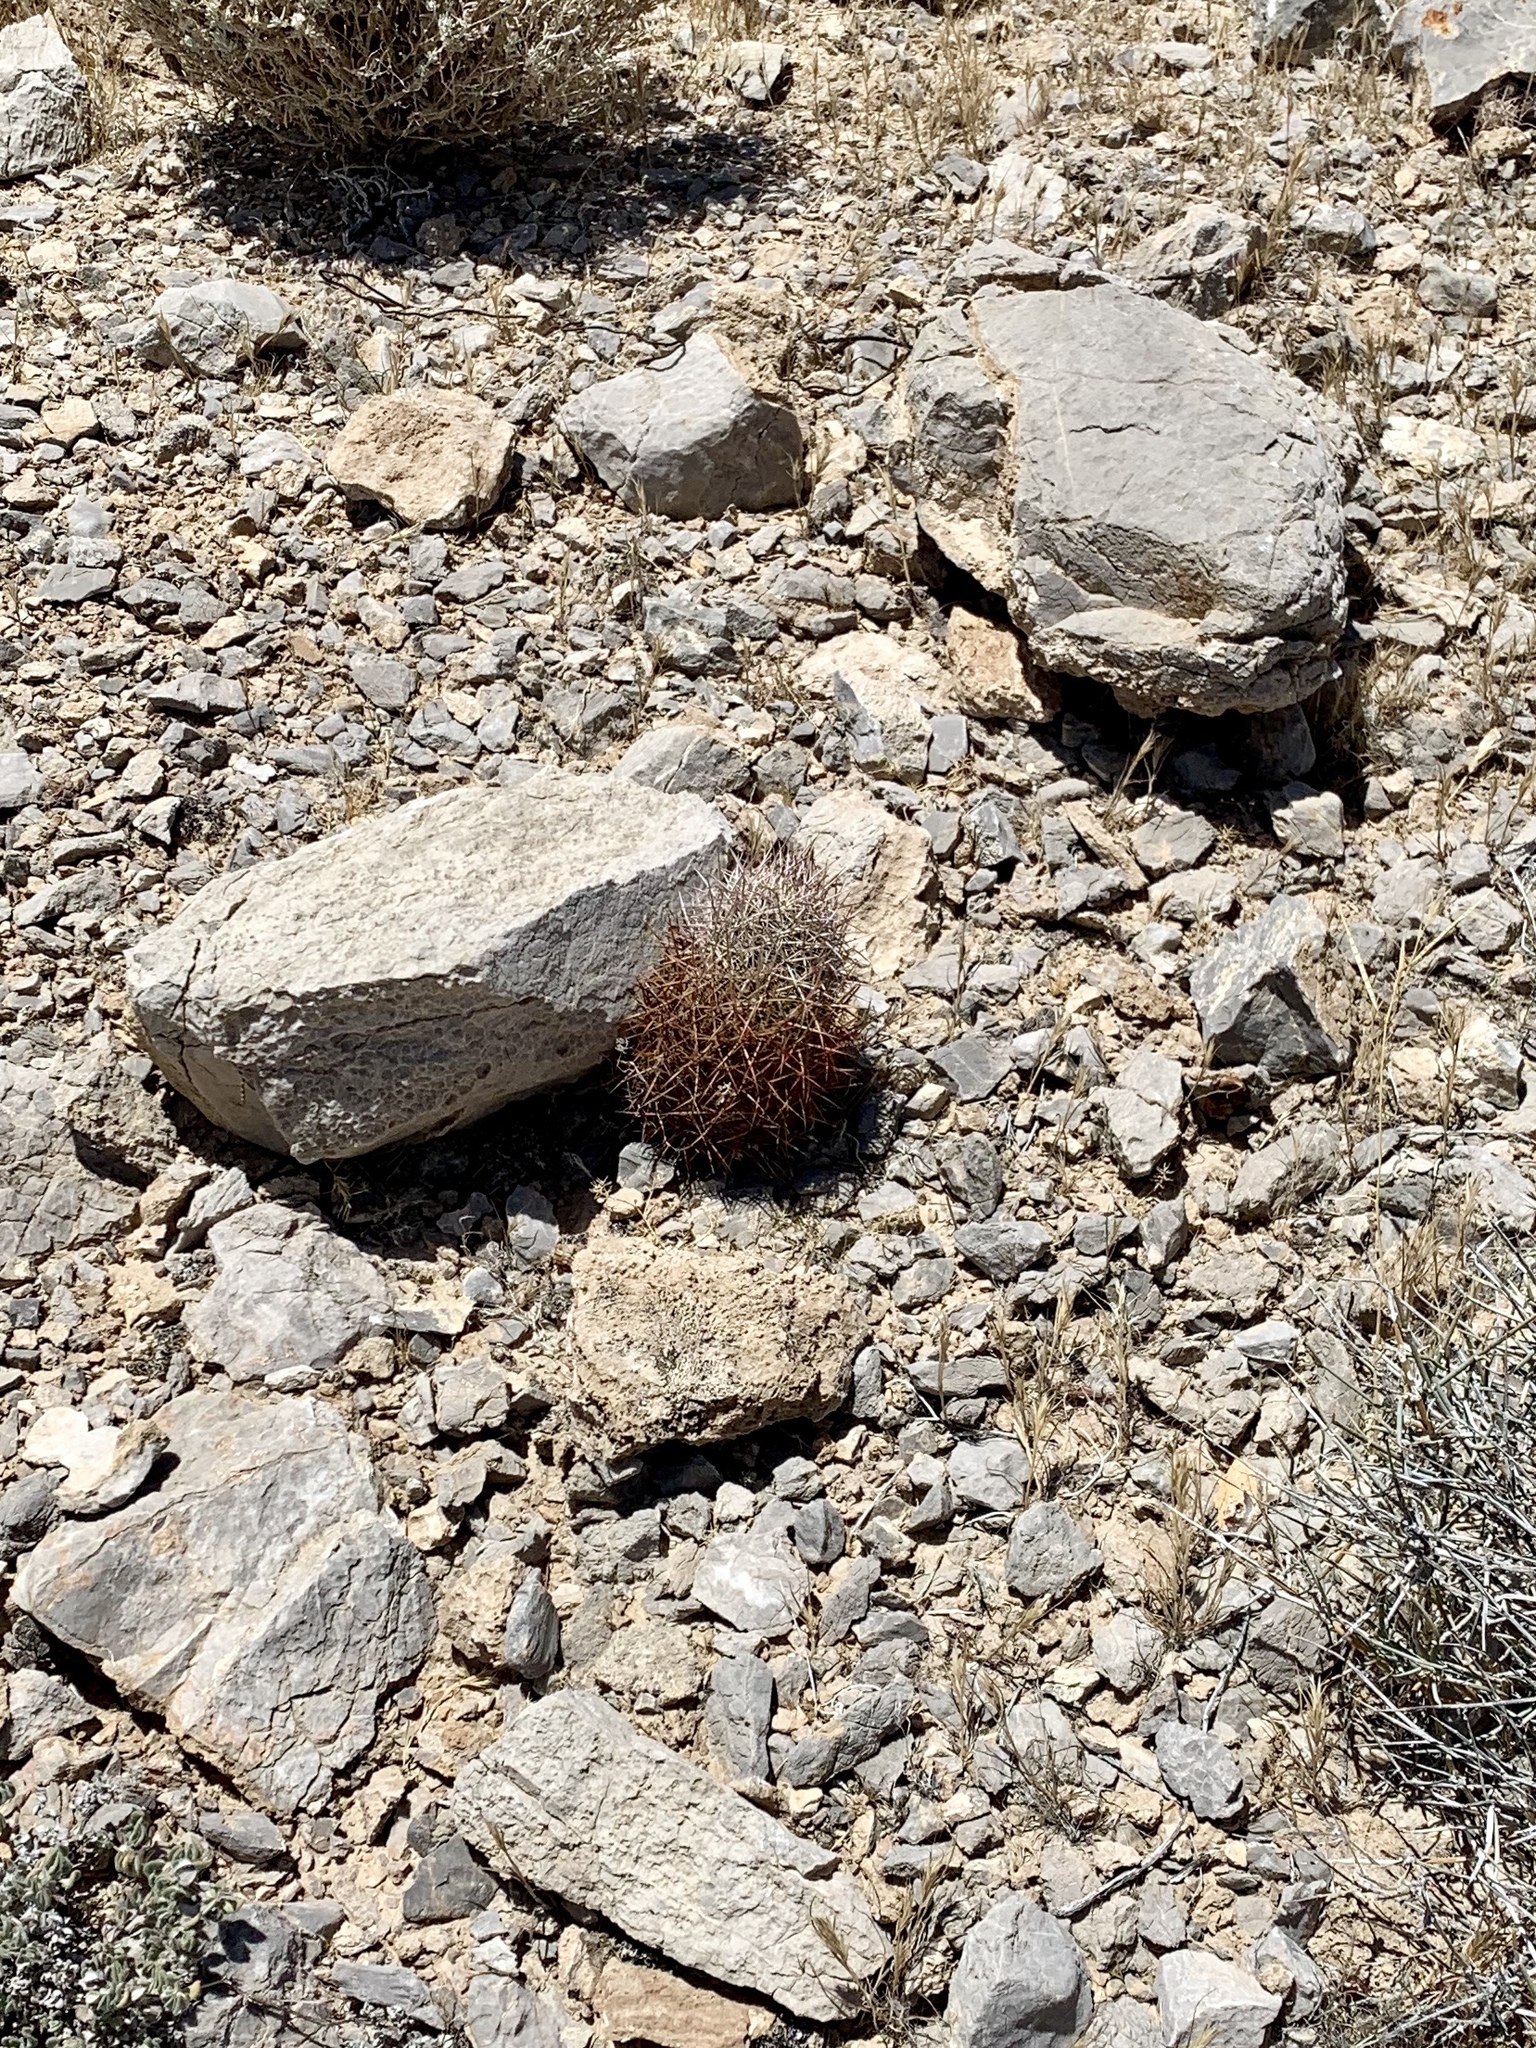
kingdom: Plantae
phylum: Tracheophyta
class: Magnoliopsida
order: Caryophyllales
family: Cactaceae
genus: Sclerocactus
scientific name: Sclerocactus johnsonii
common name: Eight-spine fishhook cactus
